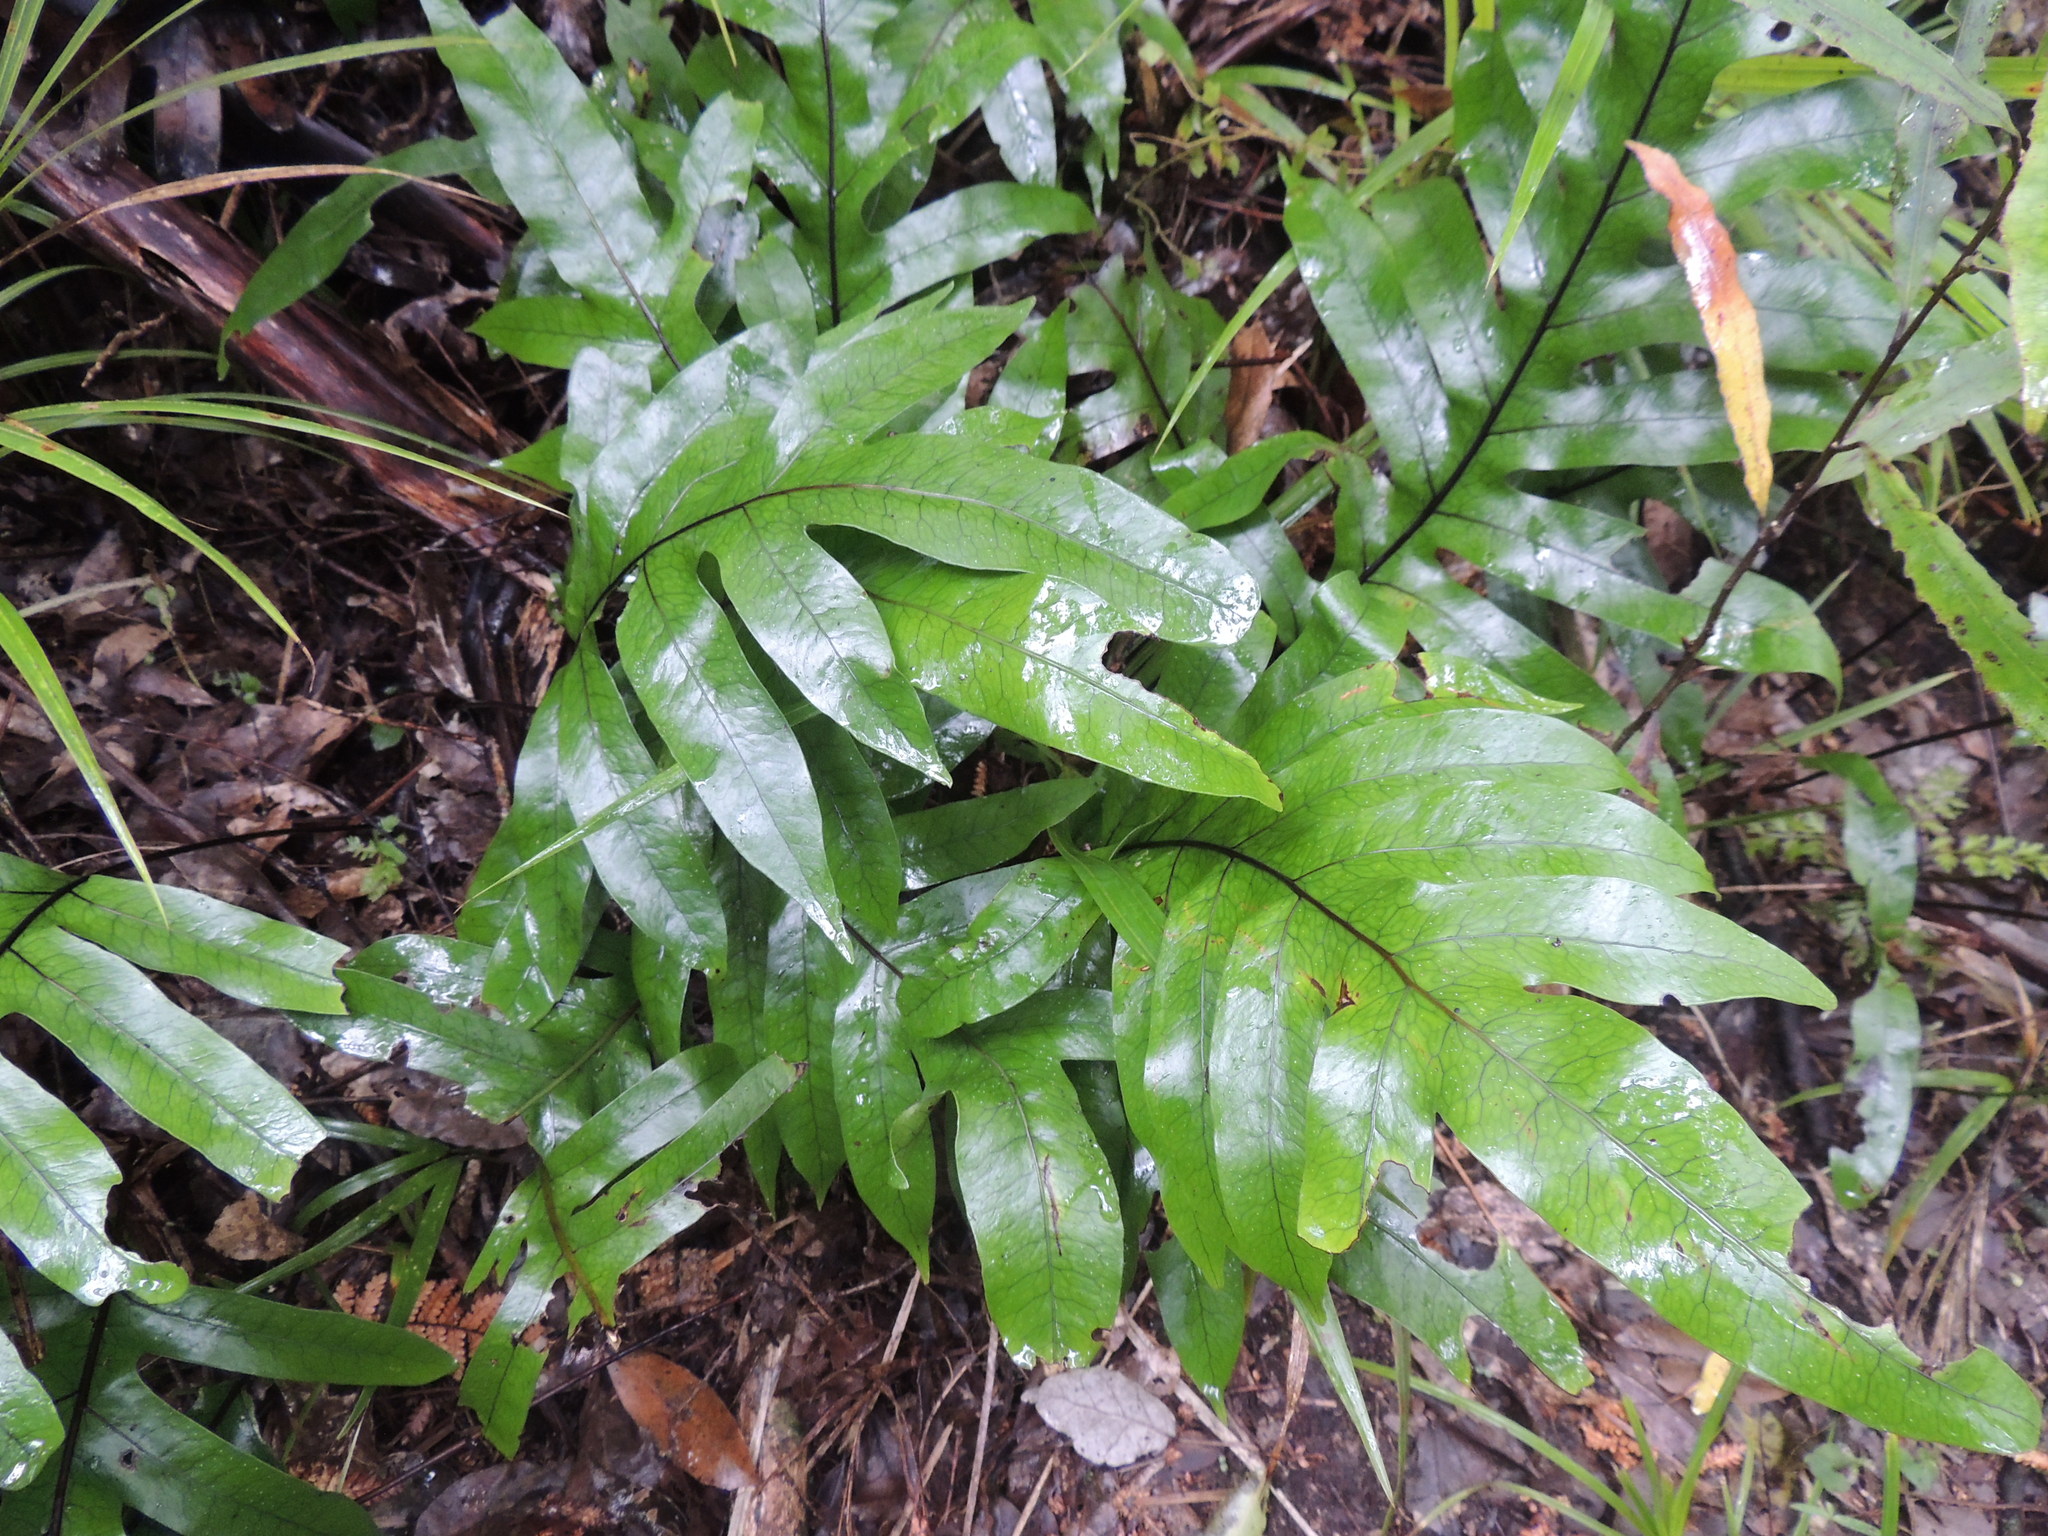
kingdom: Plantae
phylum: Tracheophyta
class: Polypodiopsida
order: Polypodiales
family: Polypodiaceae
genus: Lecanopteris
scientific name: Lecanopteris pustulata
